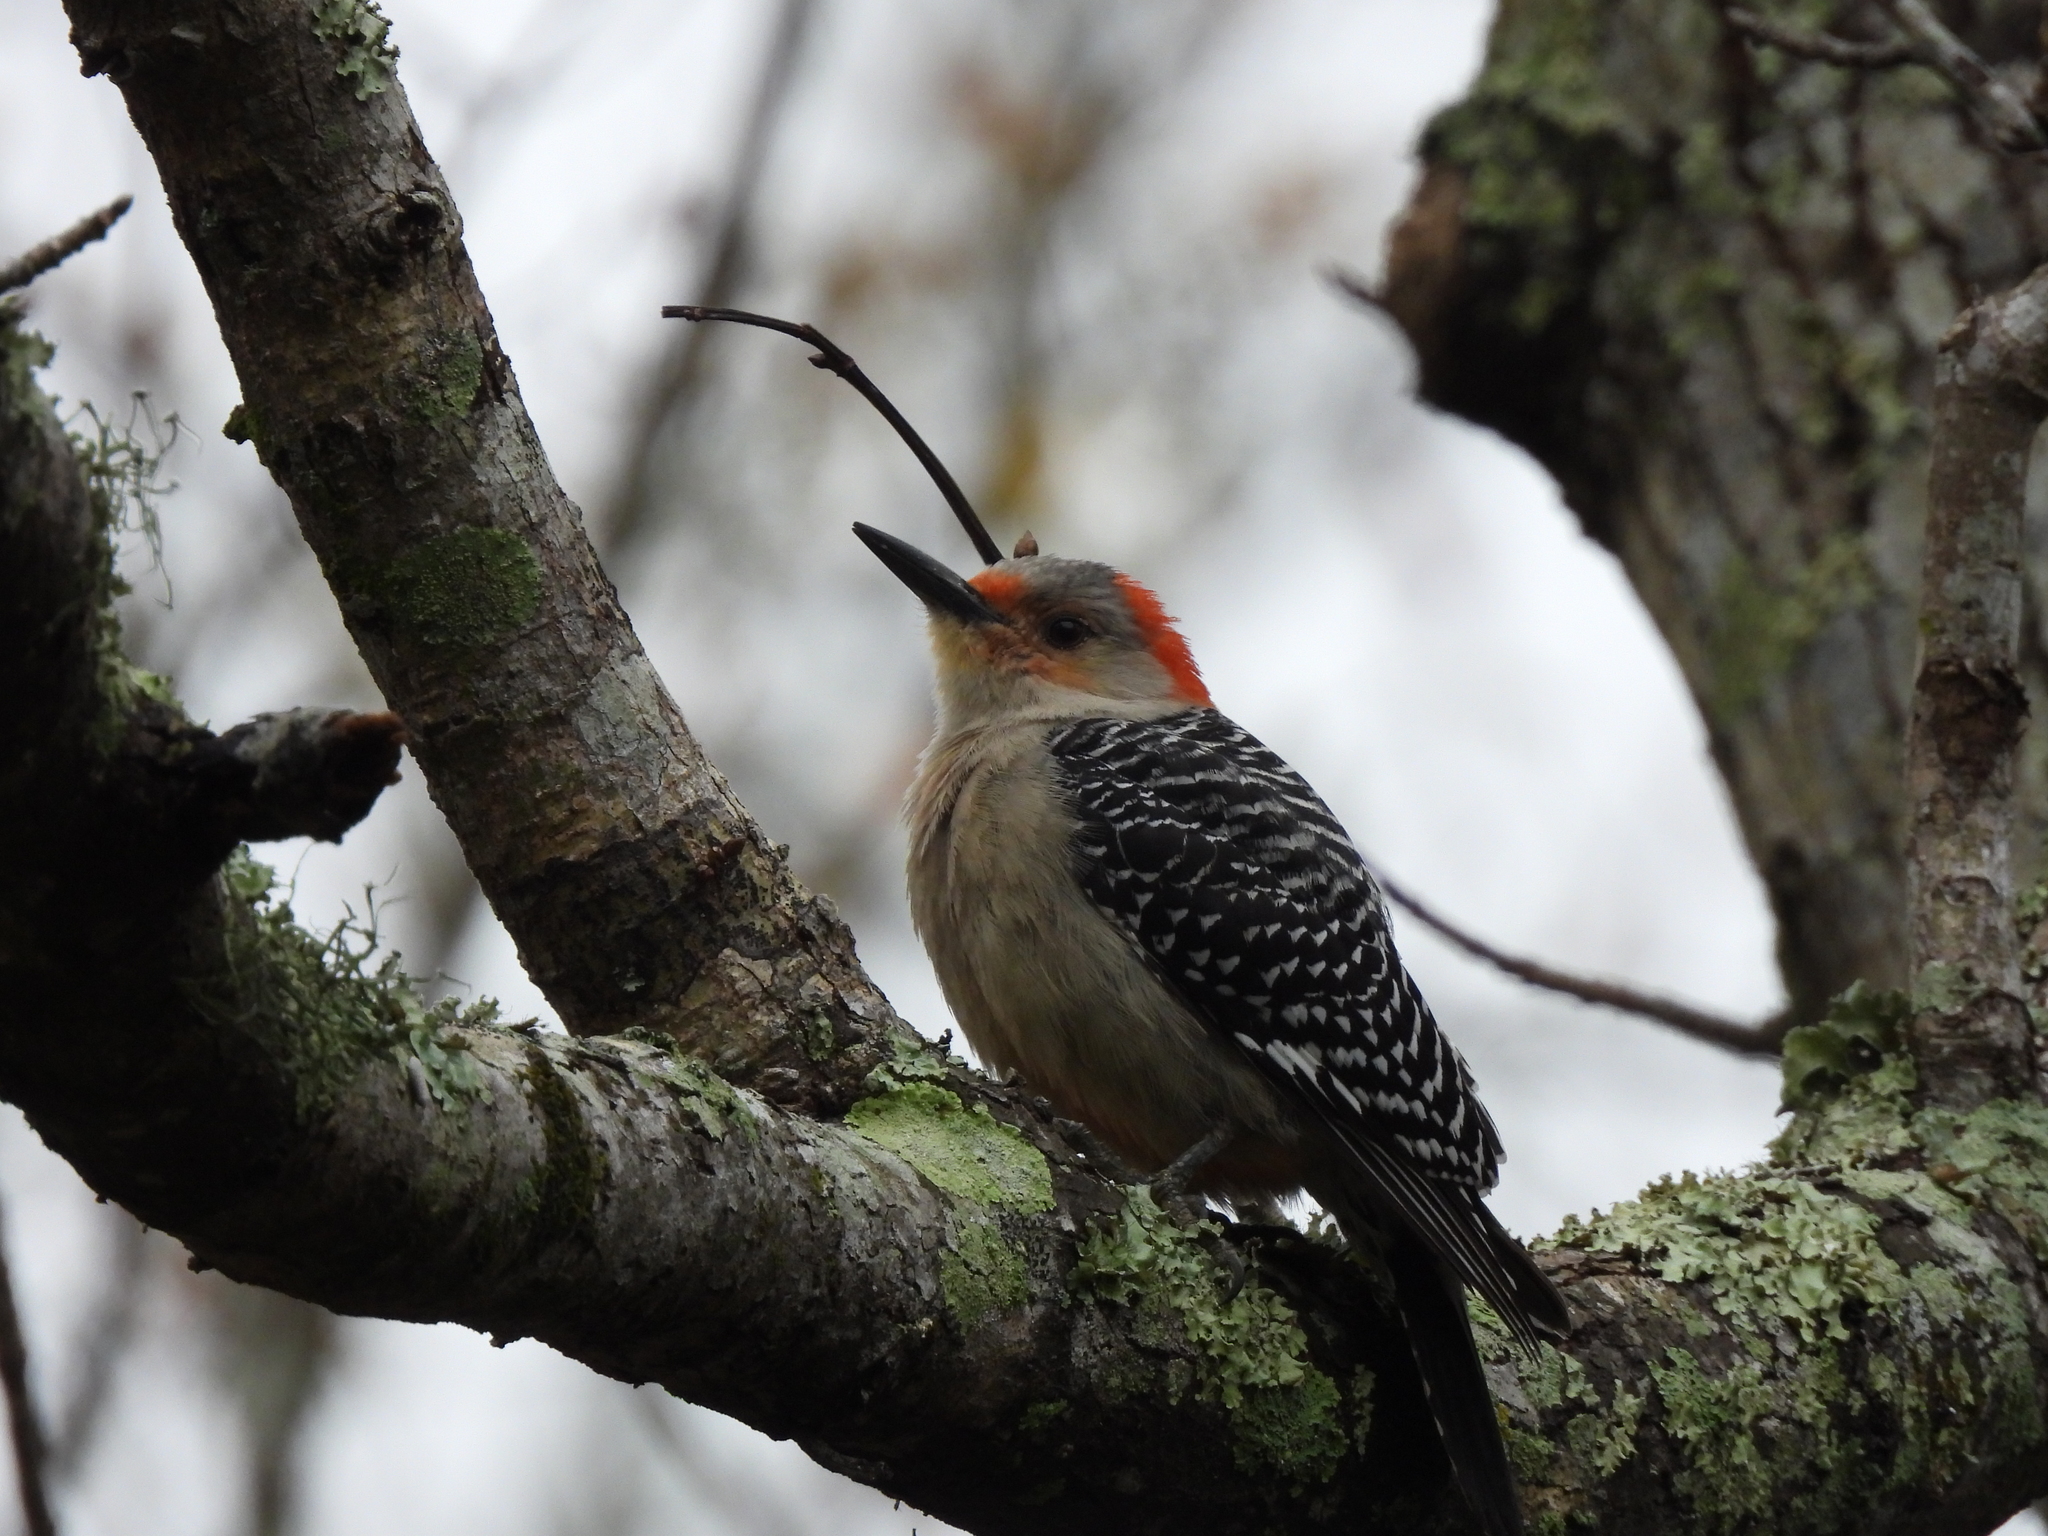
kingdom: Animalia
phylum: Chordata
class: Aves
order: Piciformes
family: Picidae
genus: Melanerpes
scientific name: Melanerpes carolinus
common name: Red-bellied woodpecker
